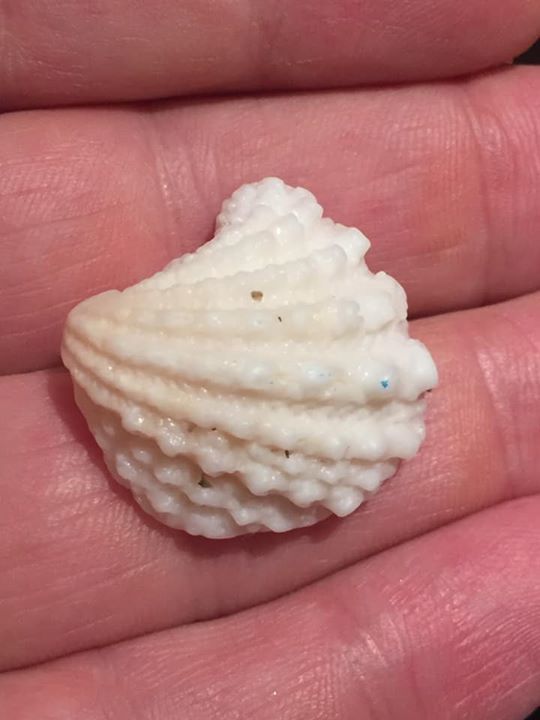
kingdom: Animalia
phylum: Mollusca
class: Bivalvia
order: Venerida
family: Chamidae
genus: Arcinella
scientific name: Arcinella cornuta
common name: Florida spiny jewel box
